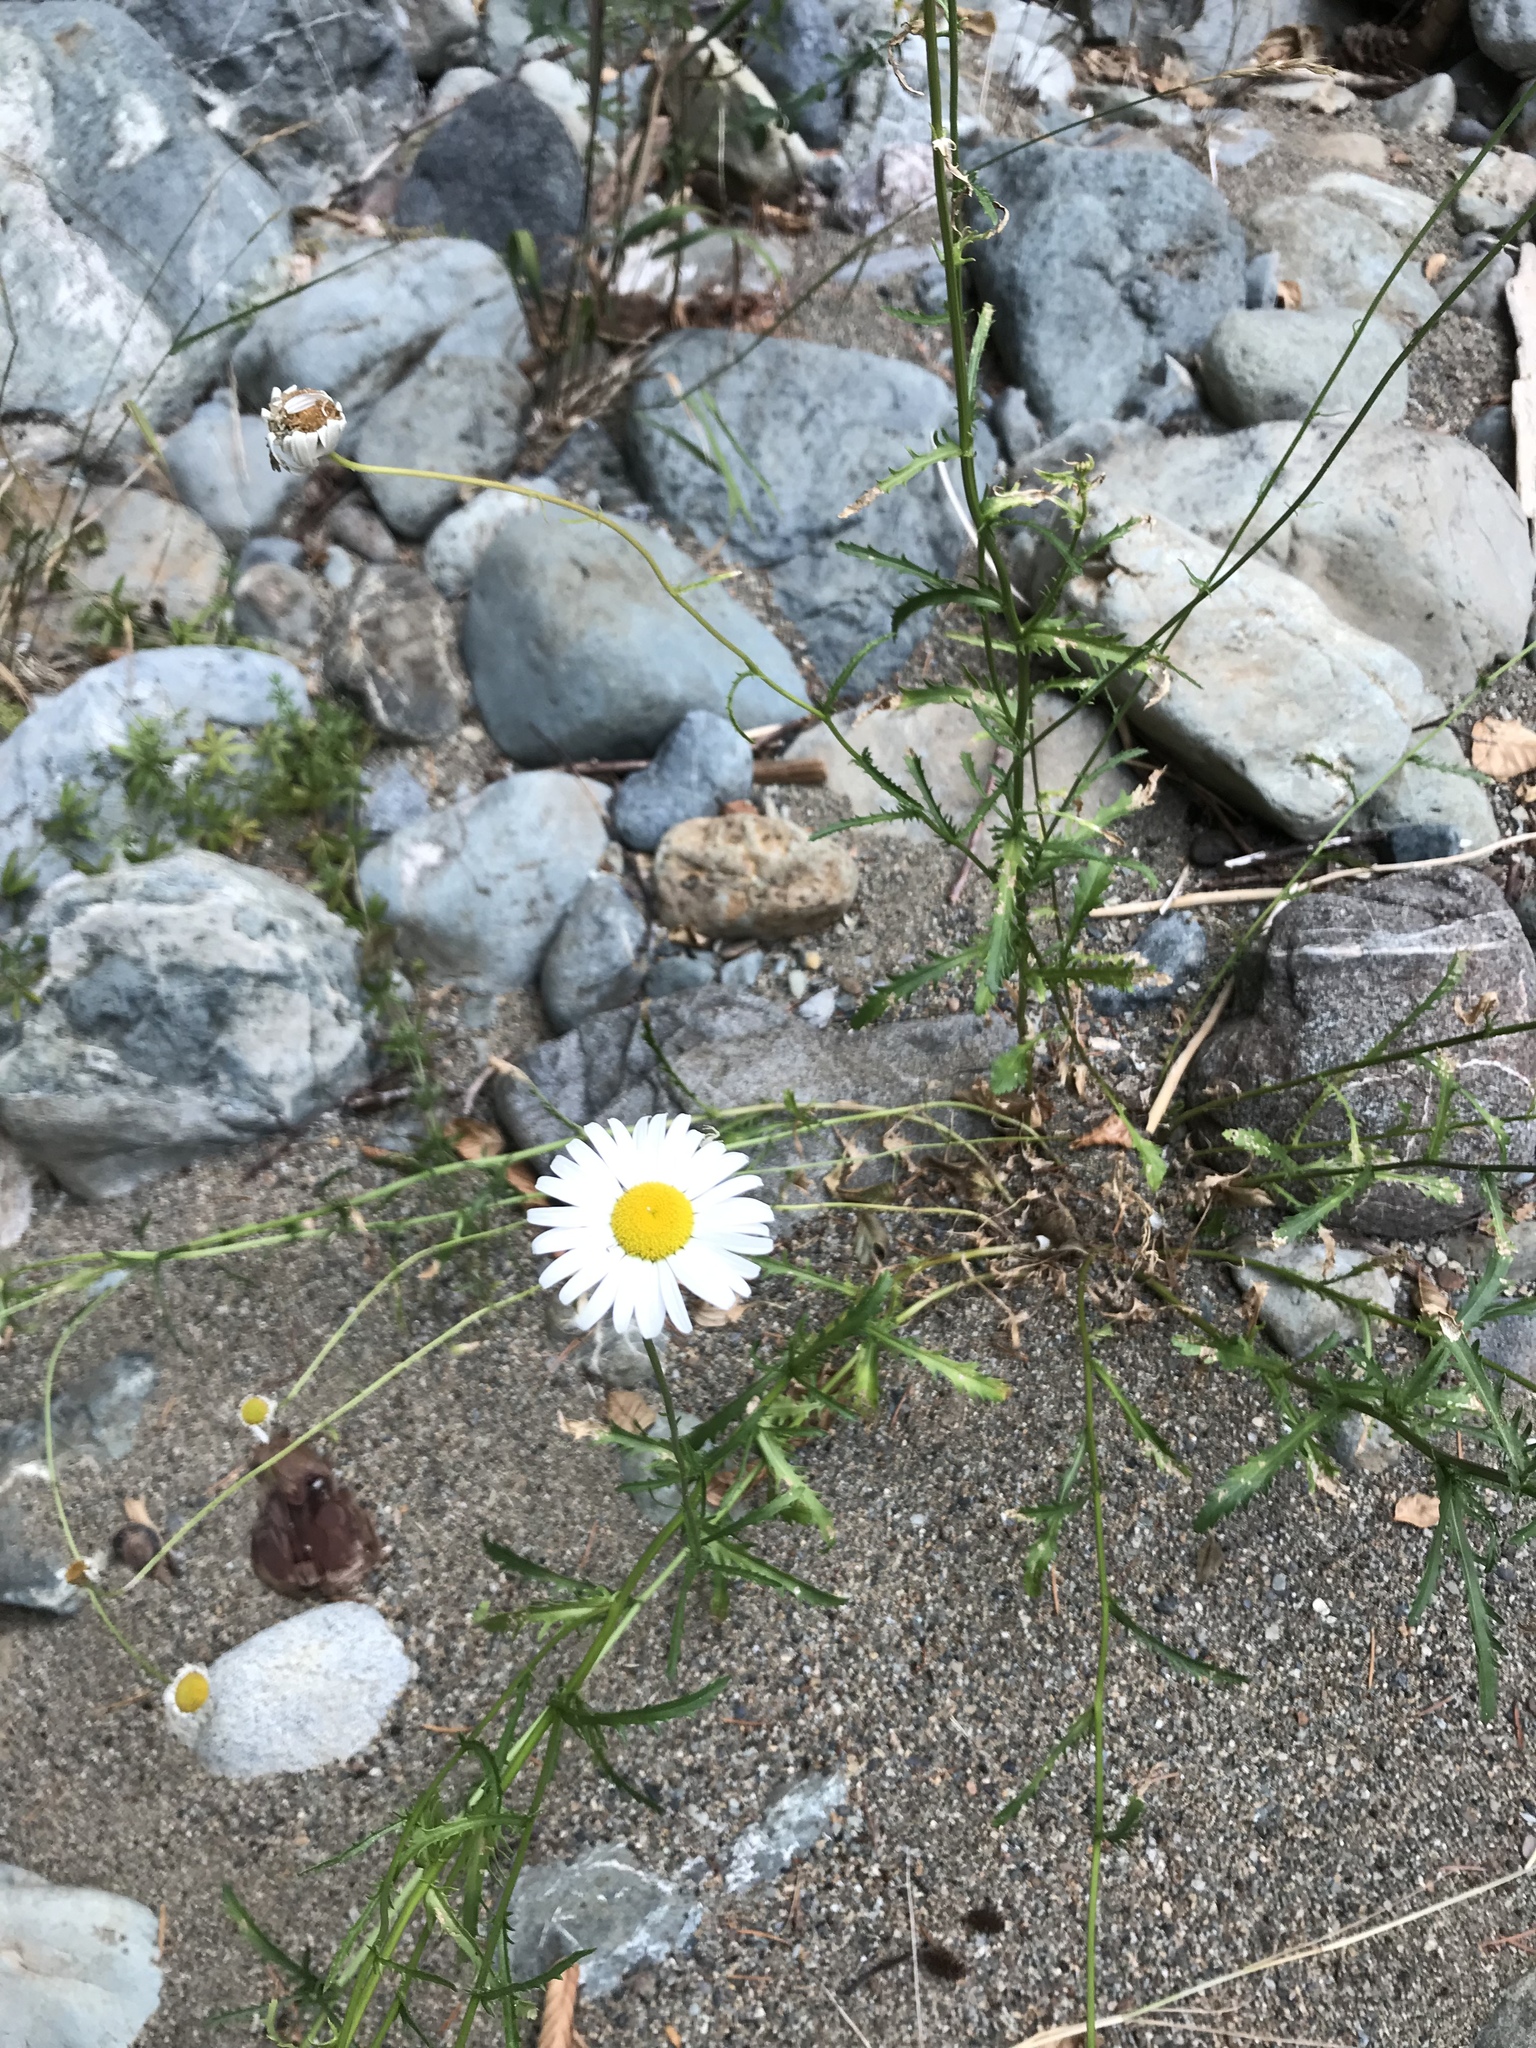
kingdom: Plantae
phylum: Tracheophyta
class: Magnoliopsida
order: Asterales
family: Asteraceae
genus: Leucanthemum
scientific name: Leucanthemum vulgare
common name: Oxeye daisy
